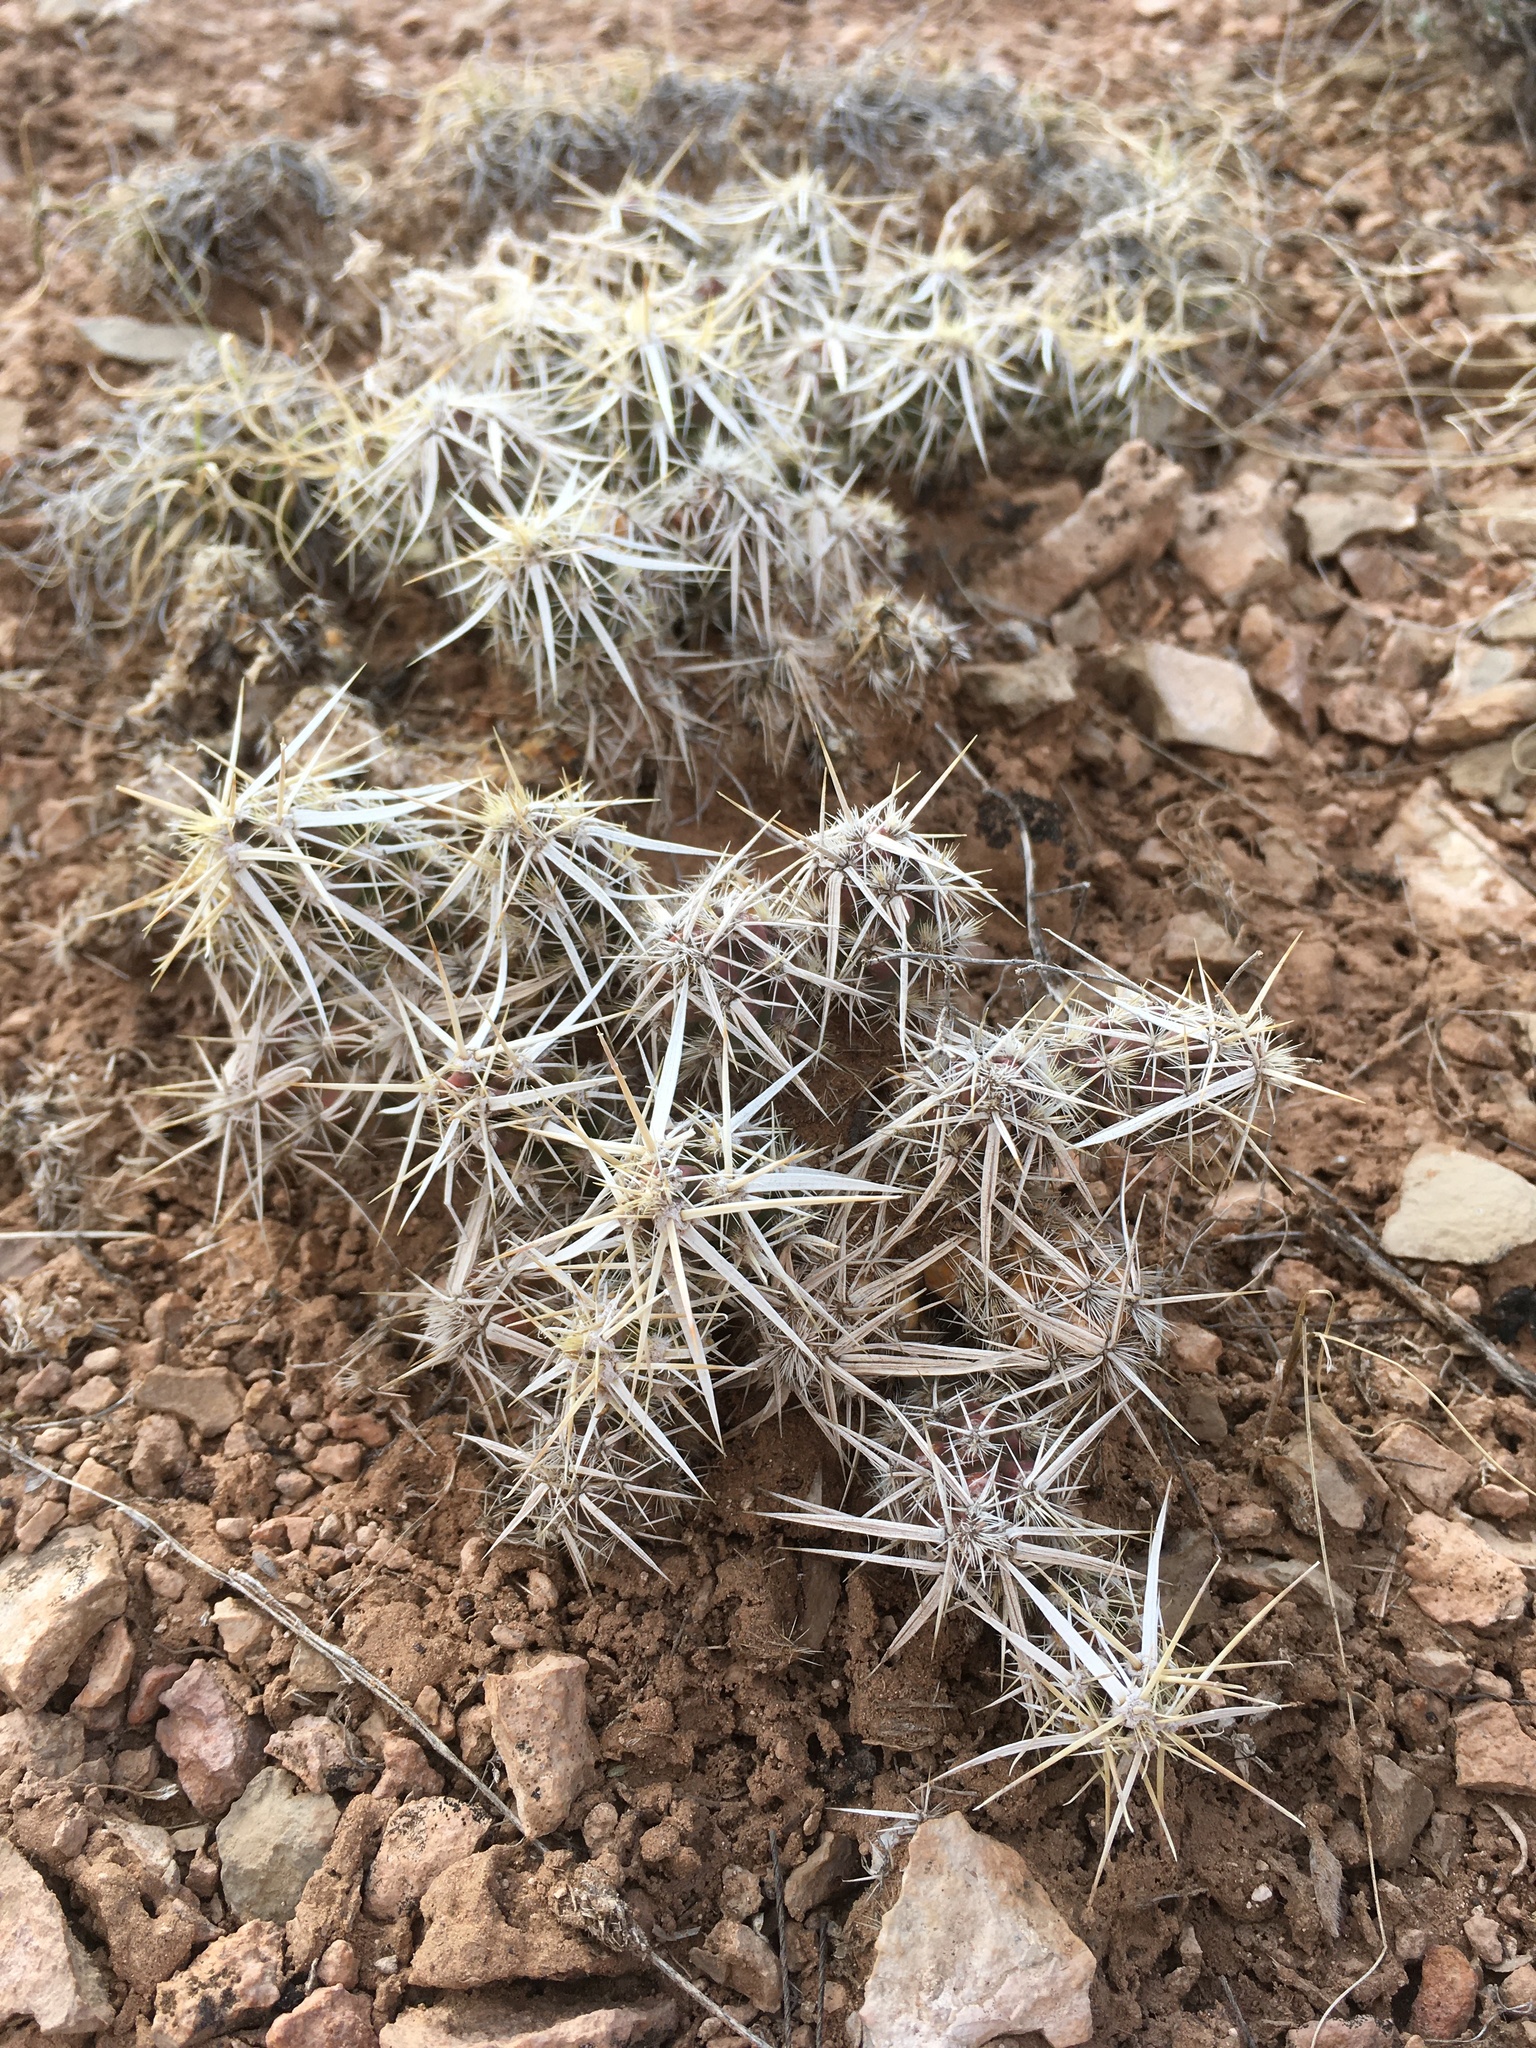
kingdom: Plantae
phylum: Tracheophyta
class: Magnoliopsida
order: Caryophyllales
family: Cactaceae
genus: Grusonia
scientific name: Grusonia clavata
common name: Club cholla
